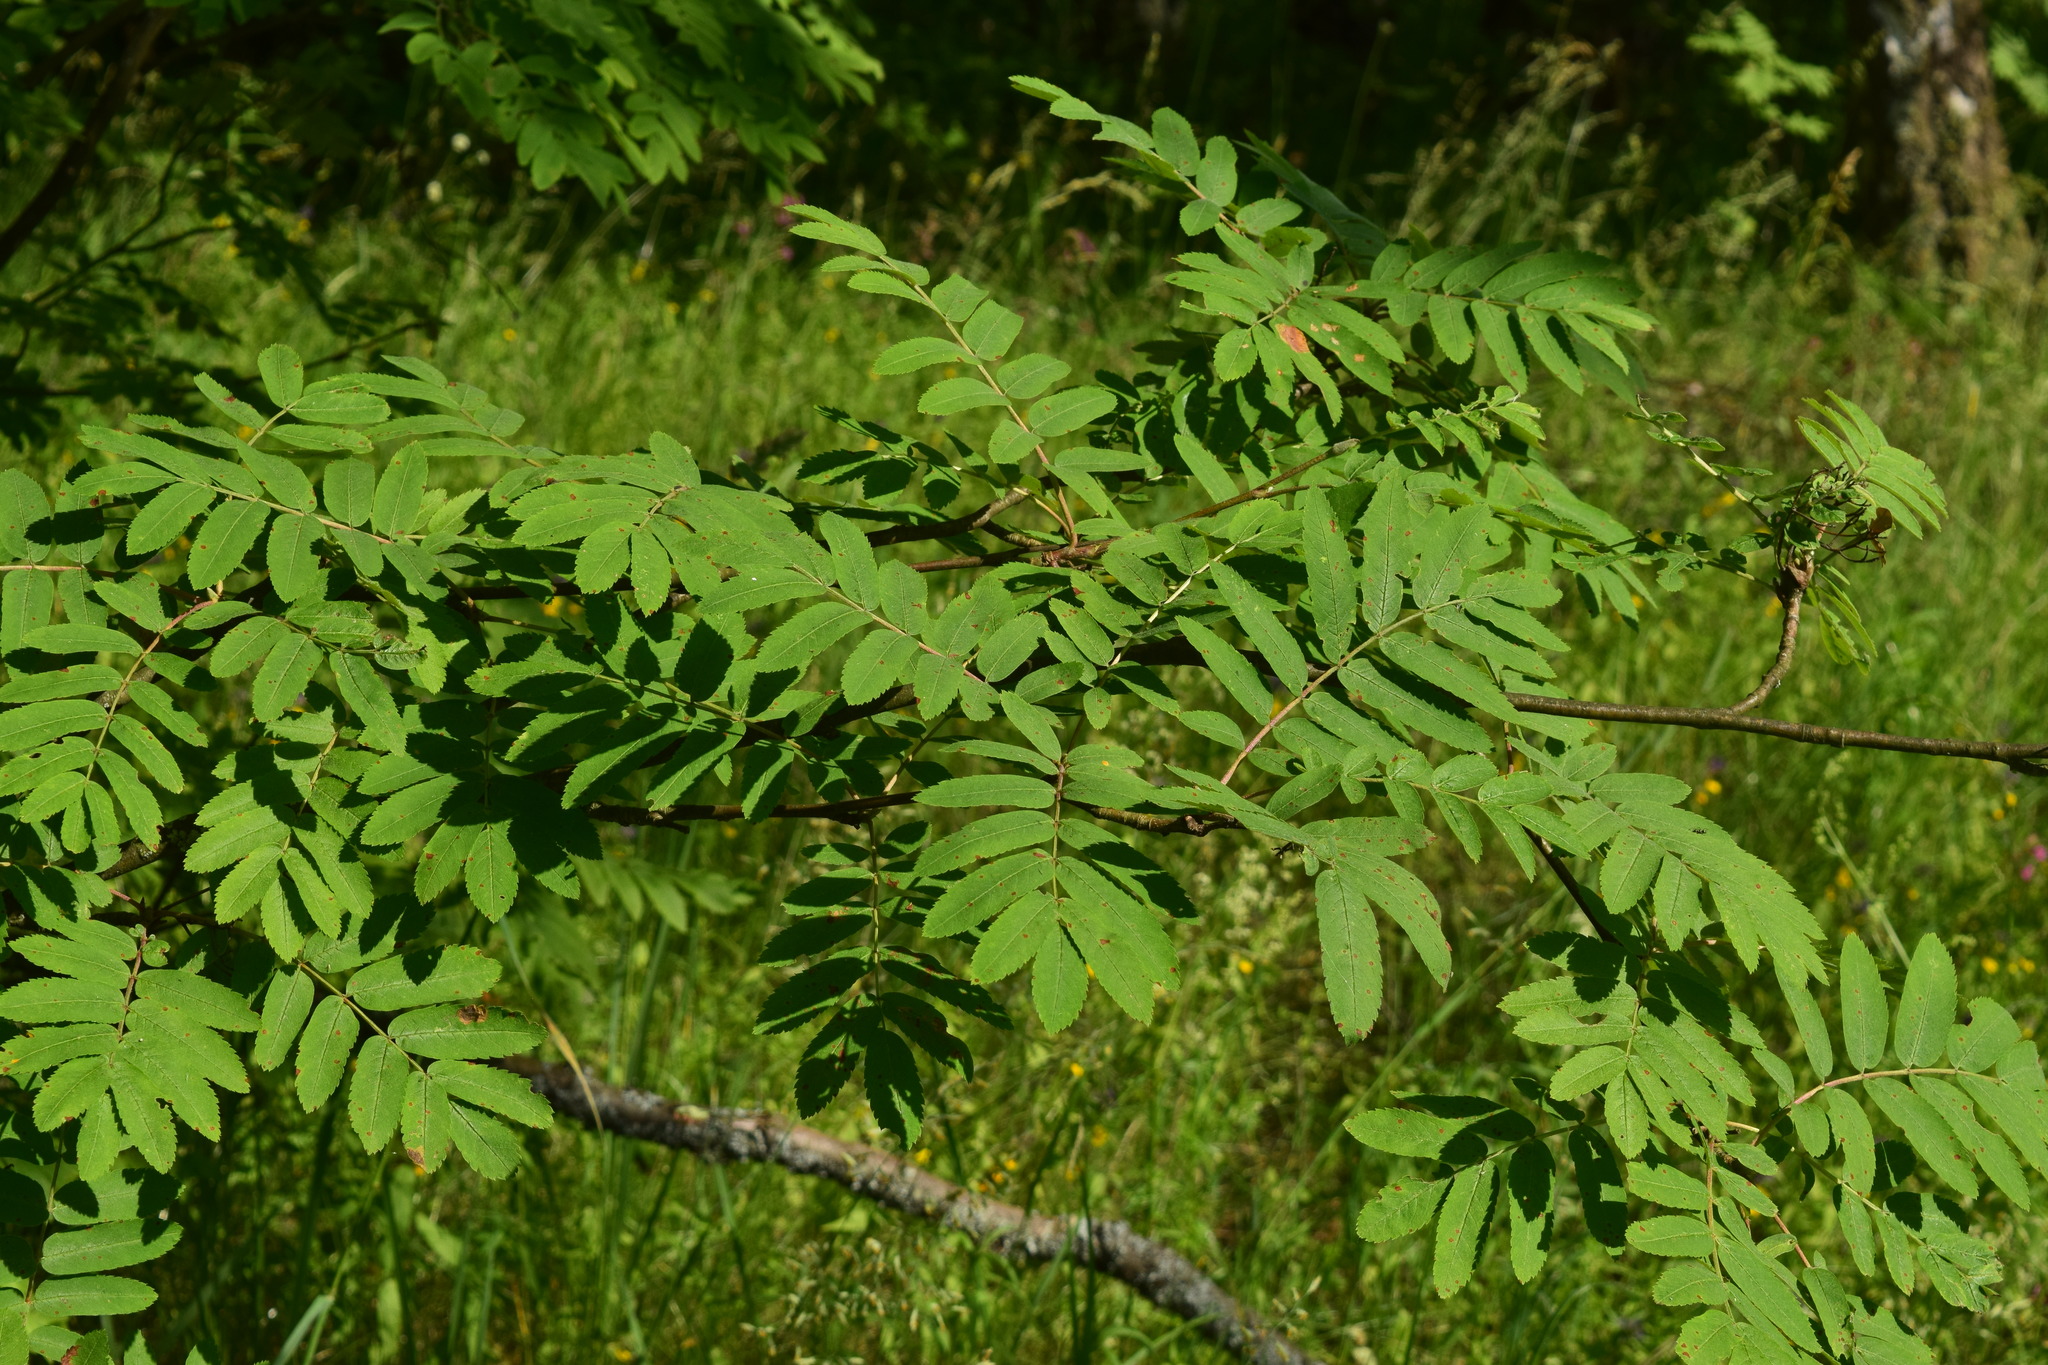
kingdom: Plantae
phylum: Tracheophyta
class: Magnoliopsida
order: Rosales
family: Rosaceae
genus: Sorbus
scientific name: Sorbus aucuparia
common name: Rowan
